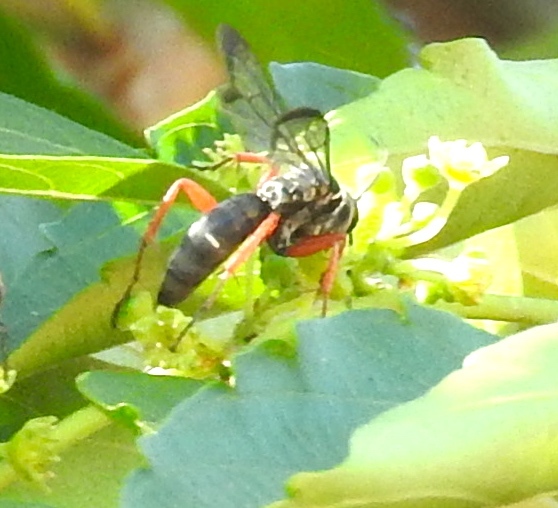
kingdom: Animalia
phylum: Arthropoda
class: Insecta
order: Hymenoptera
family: Pompilidae
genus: Episyron
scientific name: Episyron conterminus
